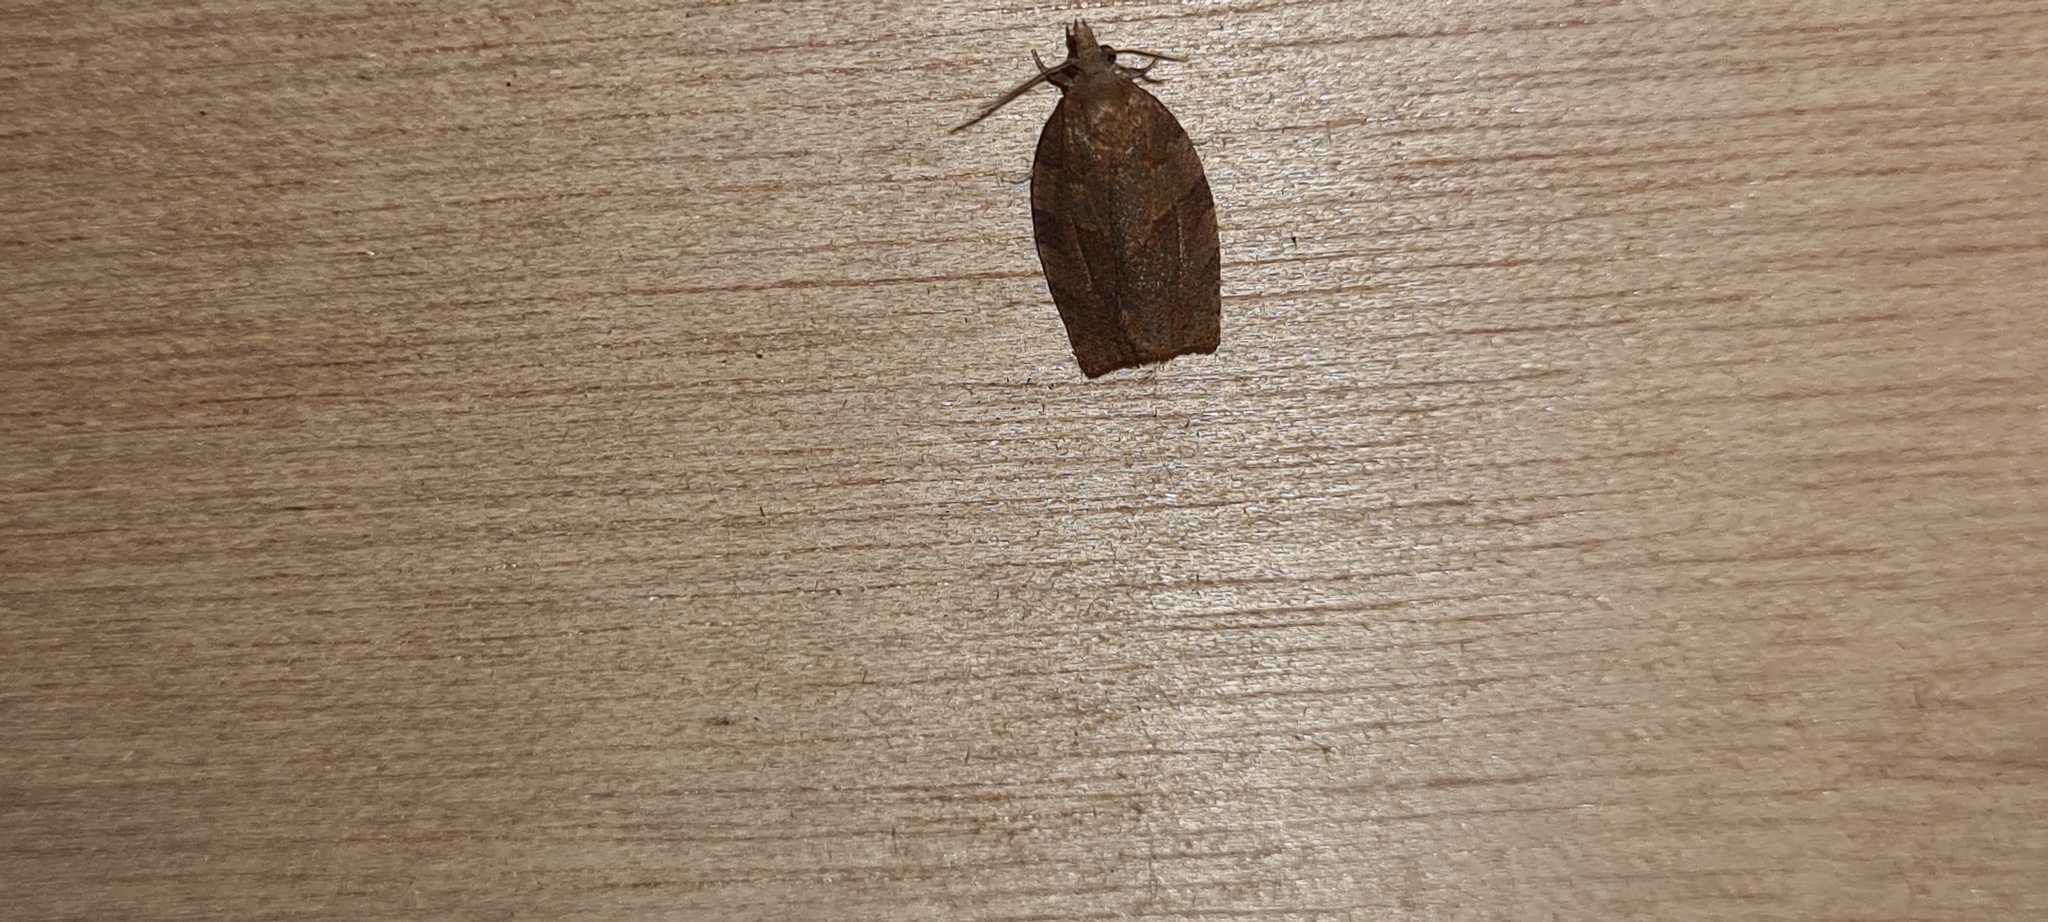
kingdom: Animalia
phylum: Arthropoda
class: Insecta
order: Lepidoptera
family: Tortricidae
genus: Pandemis
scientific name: Pandemis heparana
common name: Dark fruit-tree tortrix
